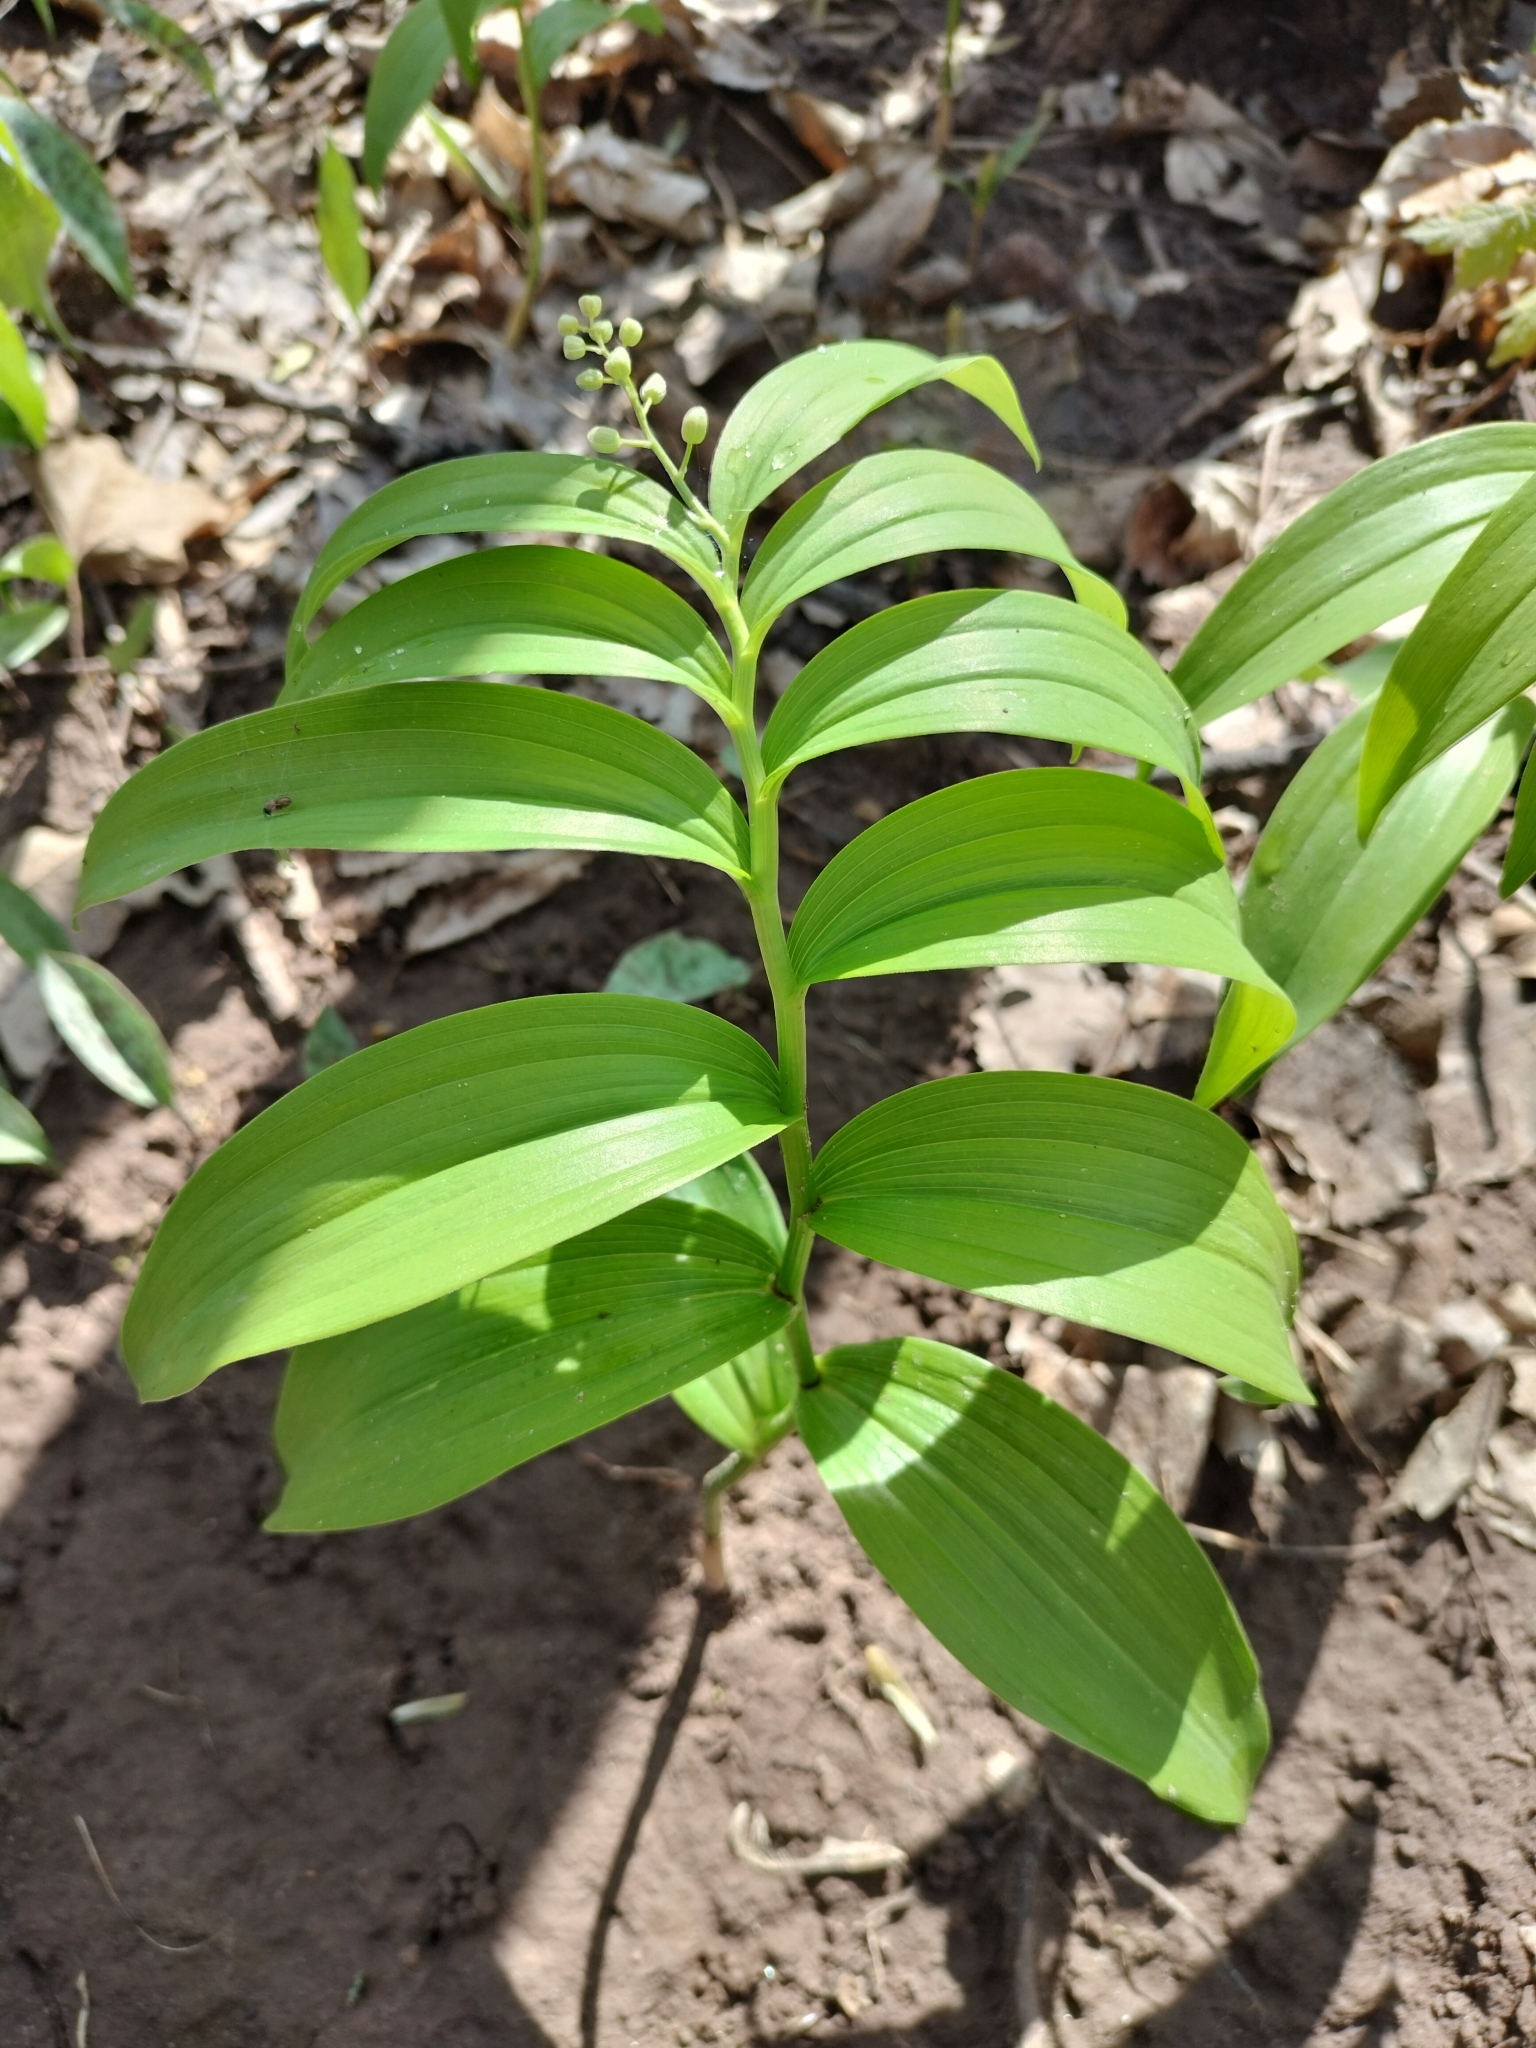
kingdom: Plantae
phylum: Tracheophyta
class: Liliopsida
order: Asparagales
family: Asparagaceae
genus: Maianthemum
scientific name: Maianthemum stellatum
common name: Little false solomon's seal
